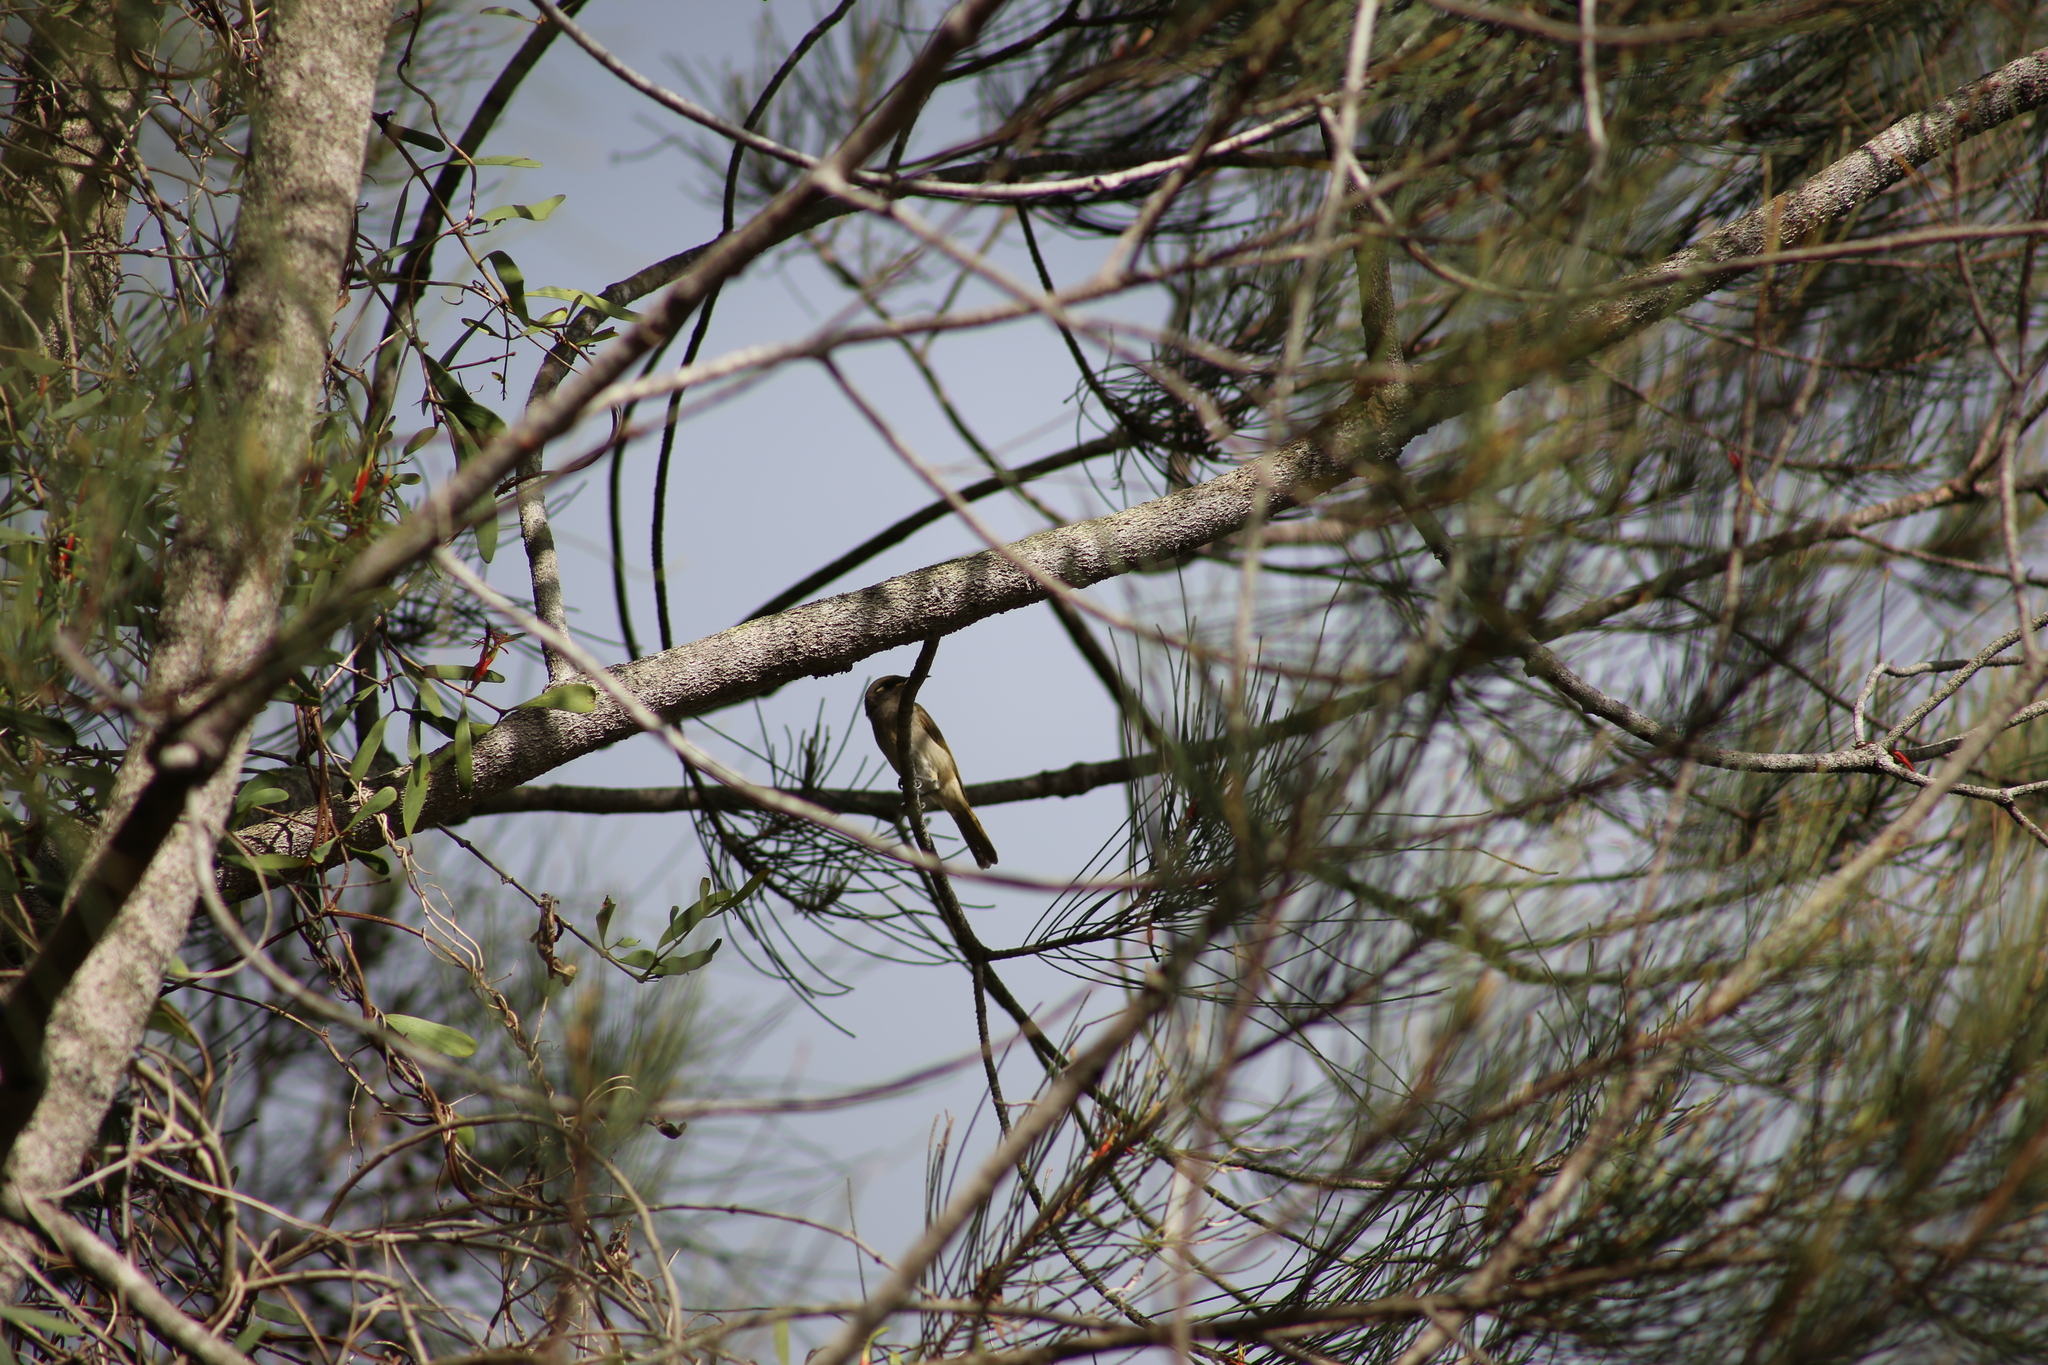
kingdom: Animalia
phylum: Chordata
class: Aves
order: Passeriformes
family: Meliphagidae
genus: Lichmera
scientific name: Lichmera indistincta
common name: Brown honeyeater
